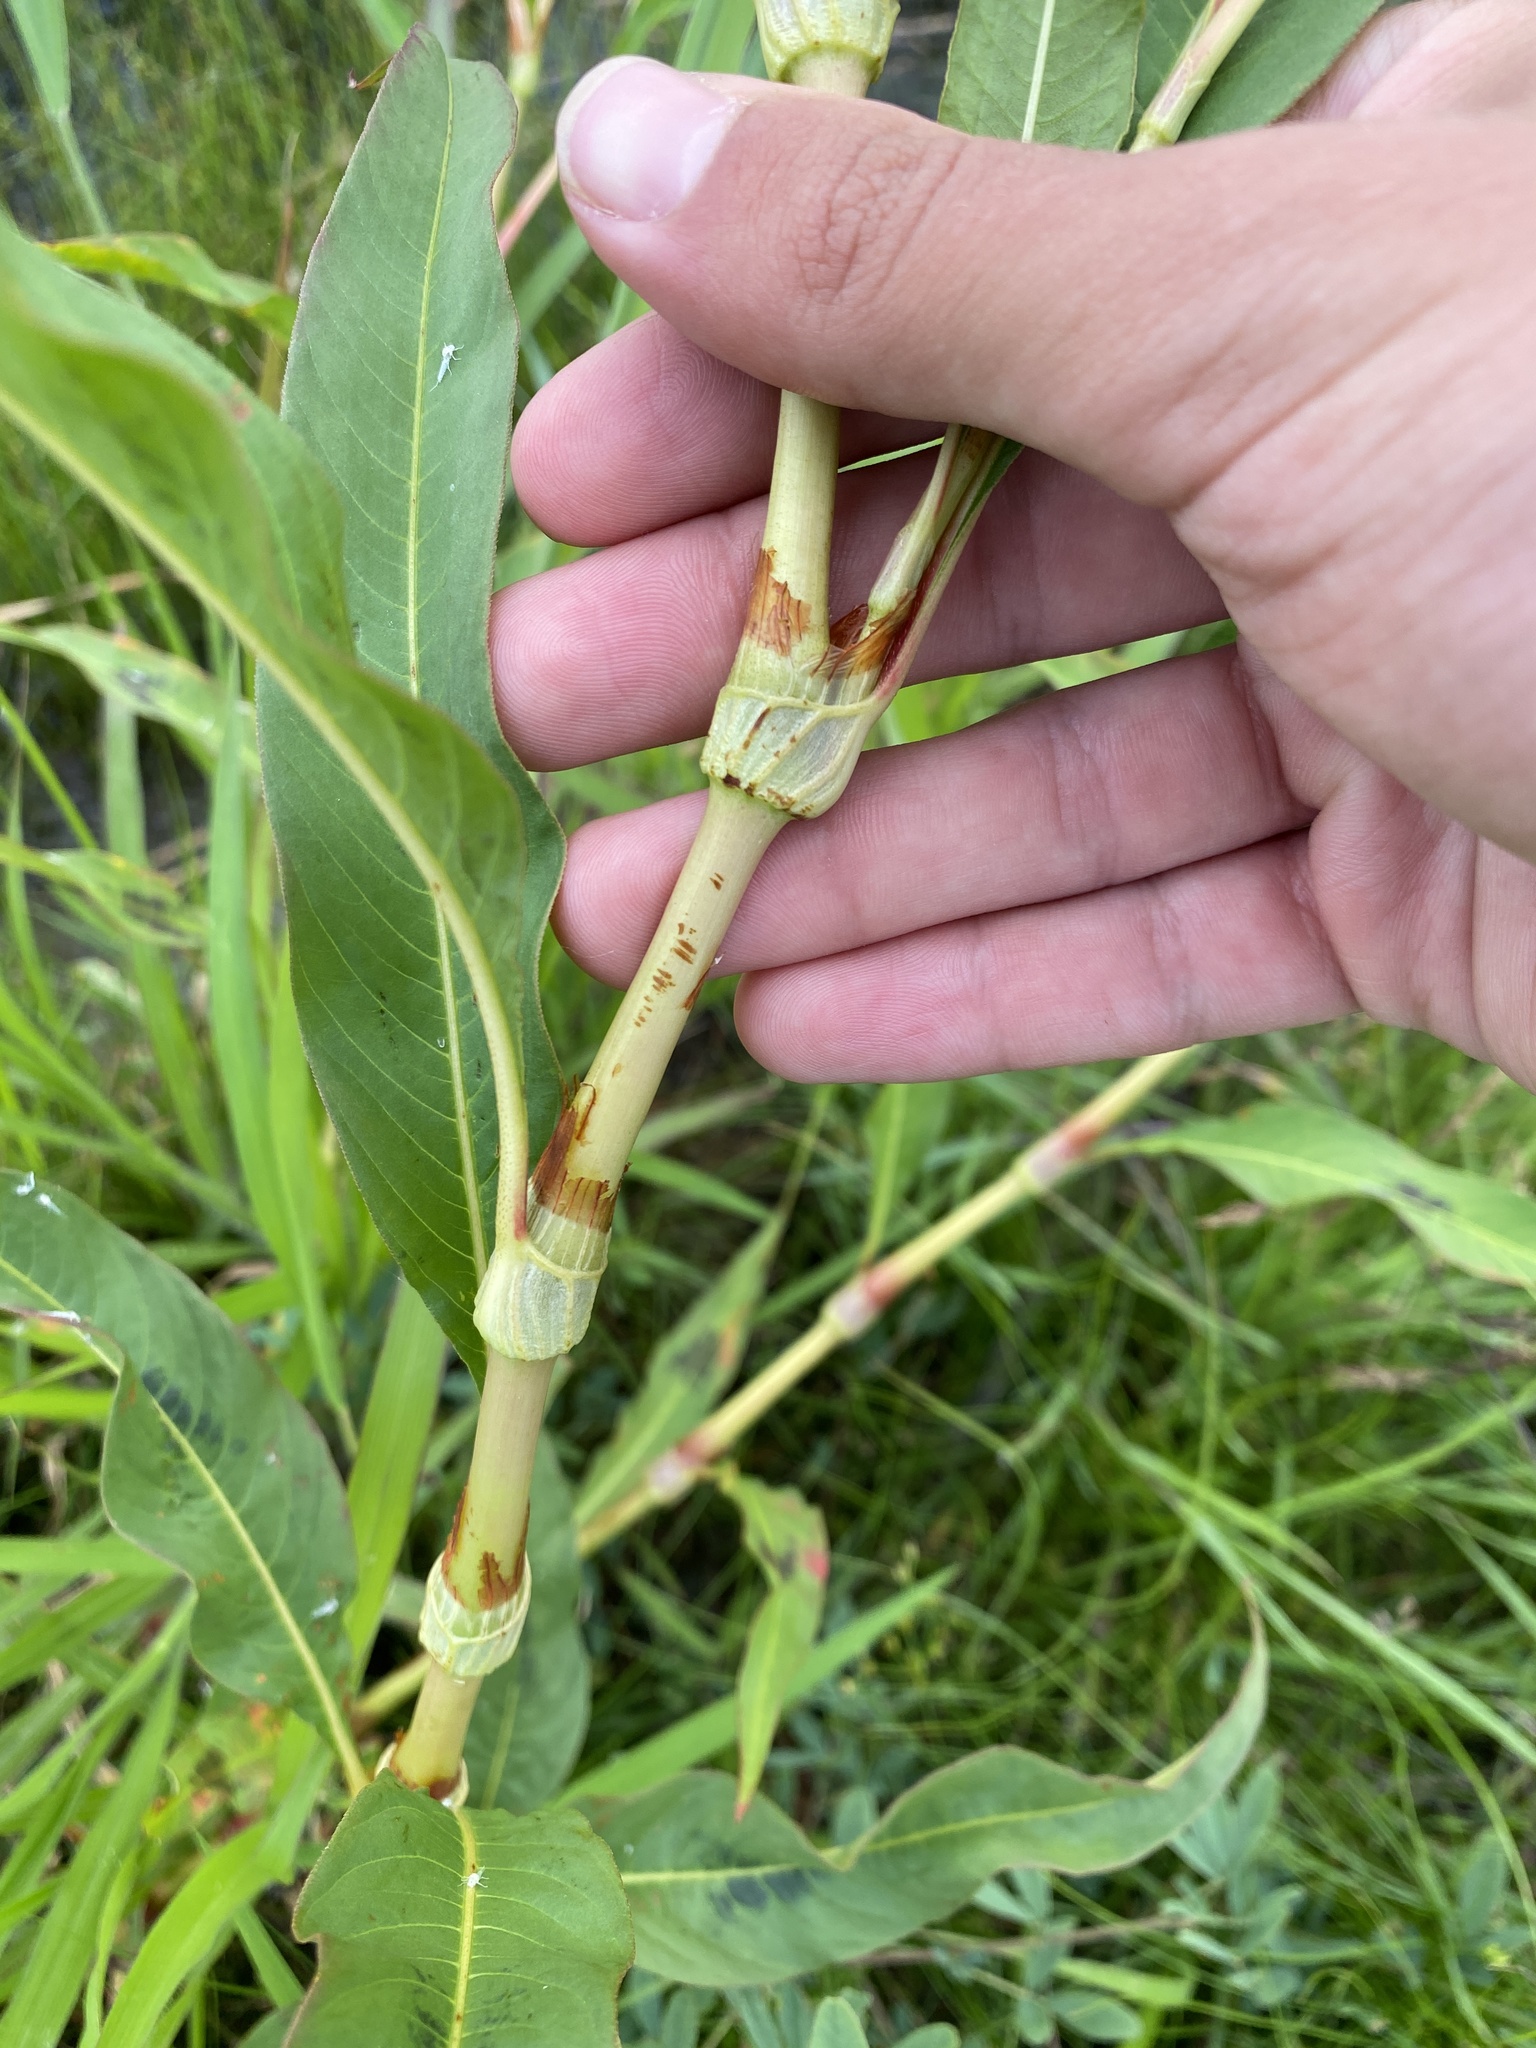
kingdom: Plantae
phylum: Tracheophyta
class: Magnoliopsida
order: Caryophyllales
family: Polygonaceae
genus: Persicaria
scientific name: Persicaria lapathifolia
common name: Curlytop knotweed
